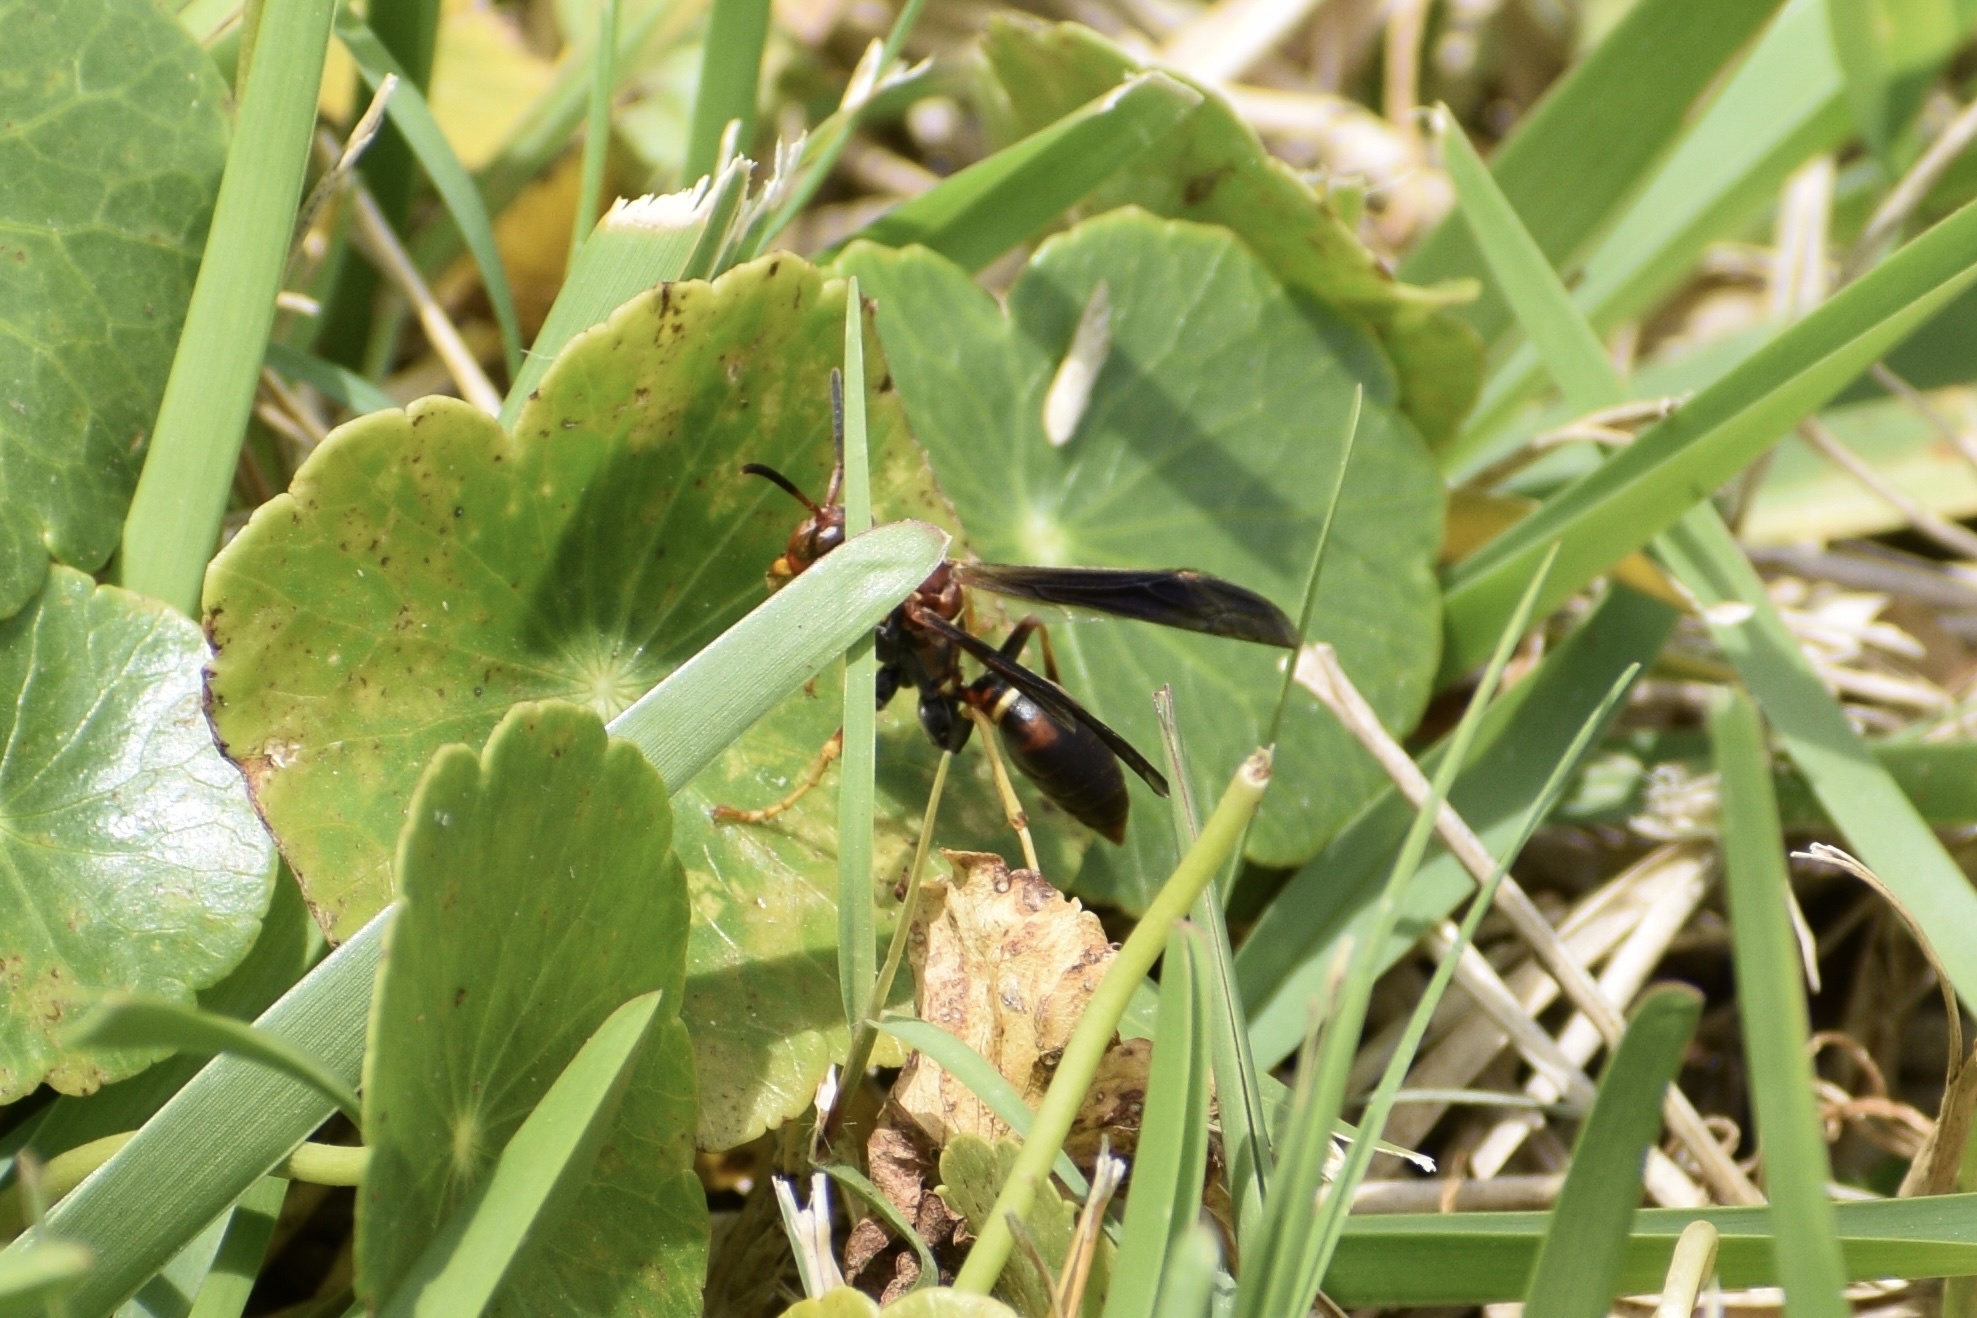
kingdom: Animalia
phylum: Arthropoda
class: Insecta
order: Hymenoptera
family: Eumenidae
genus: Polistes
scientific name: Polistes fuscatus
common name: Dark paper wasp
